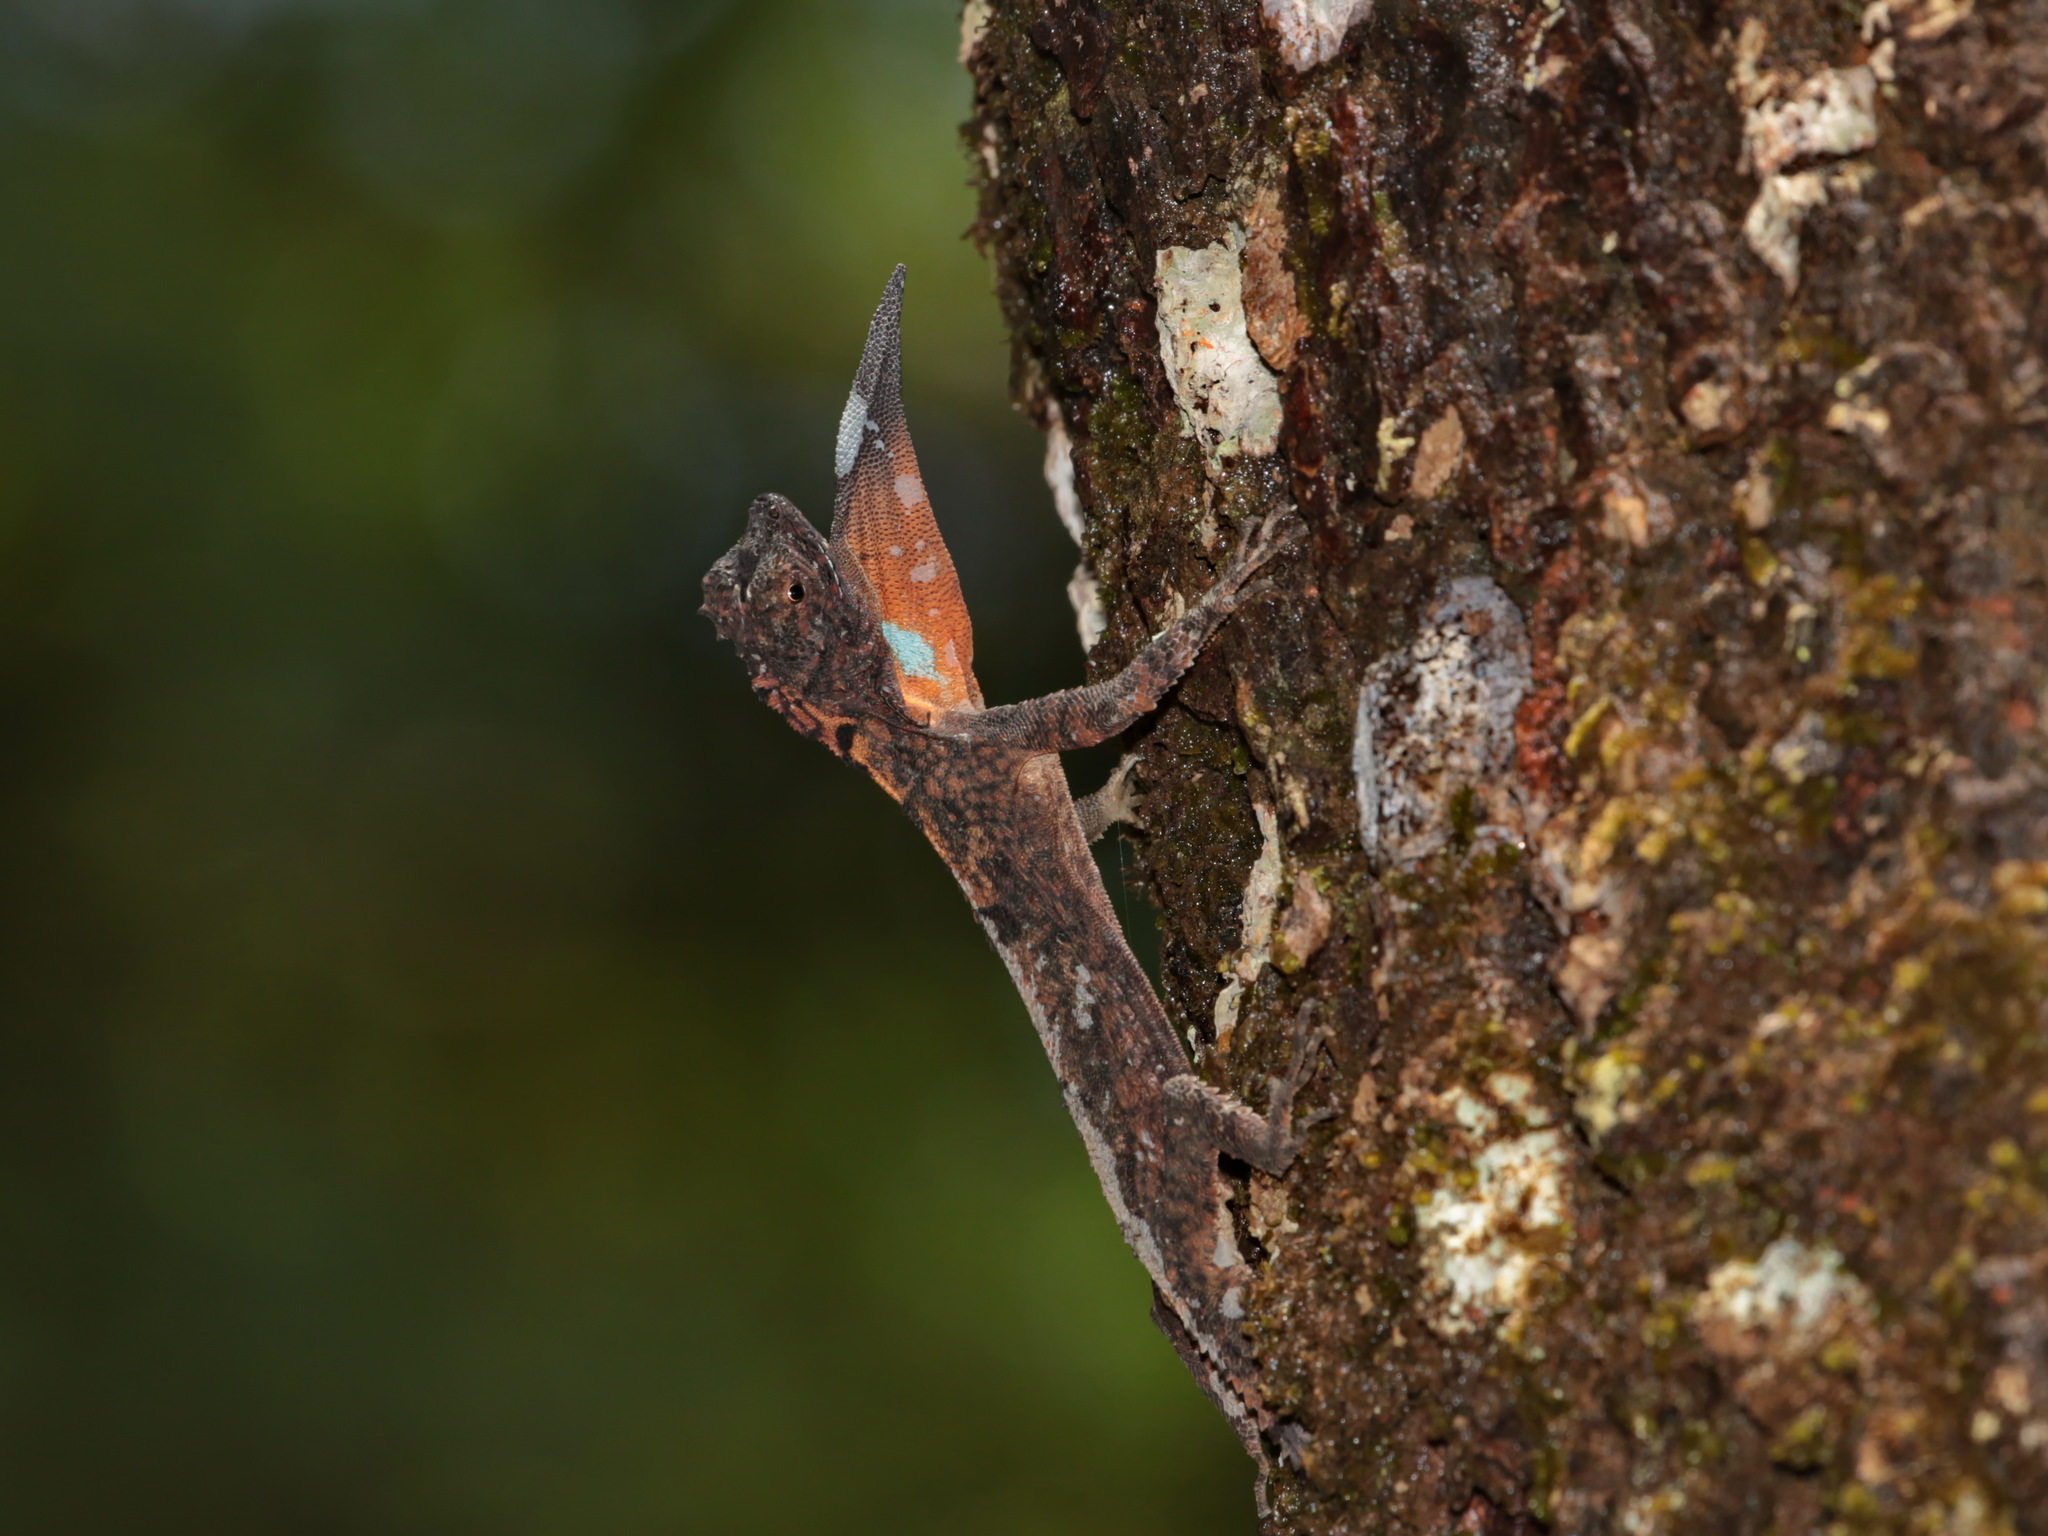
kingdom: Animalia
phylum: Chordata
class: Squamata
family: Agamidae
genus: Draco
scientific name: Draco maculatus
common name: Spotted flying dragon
